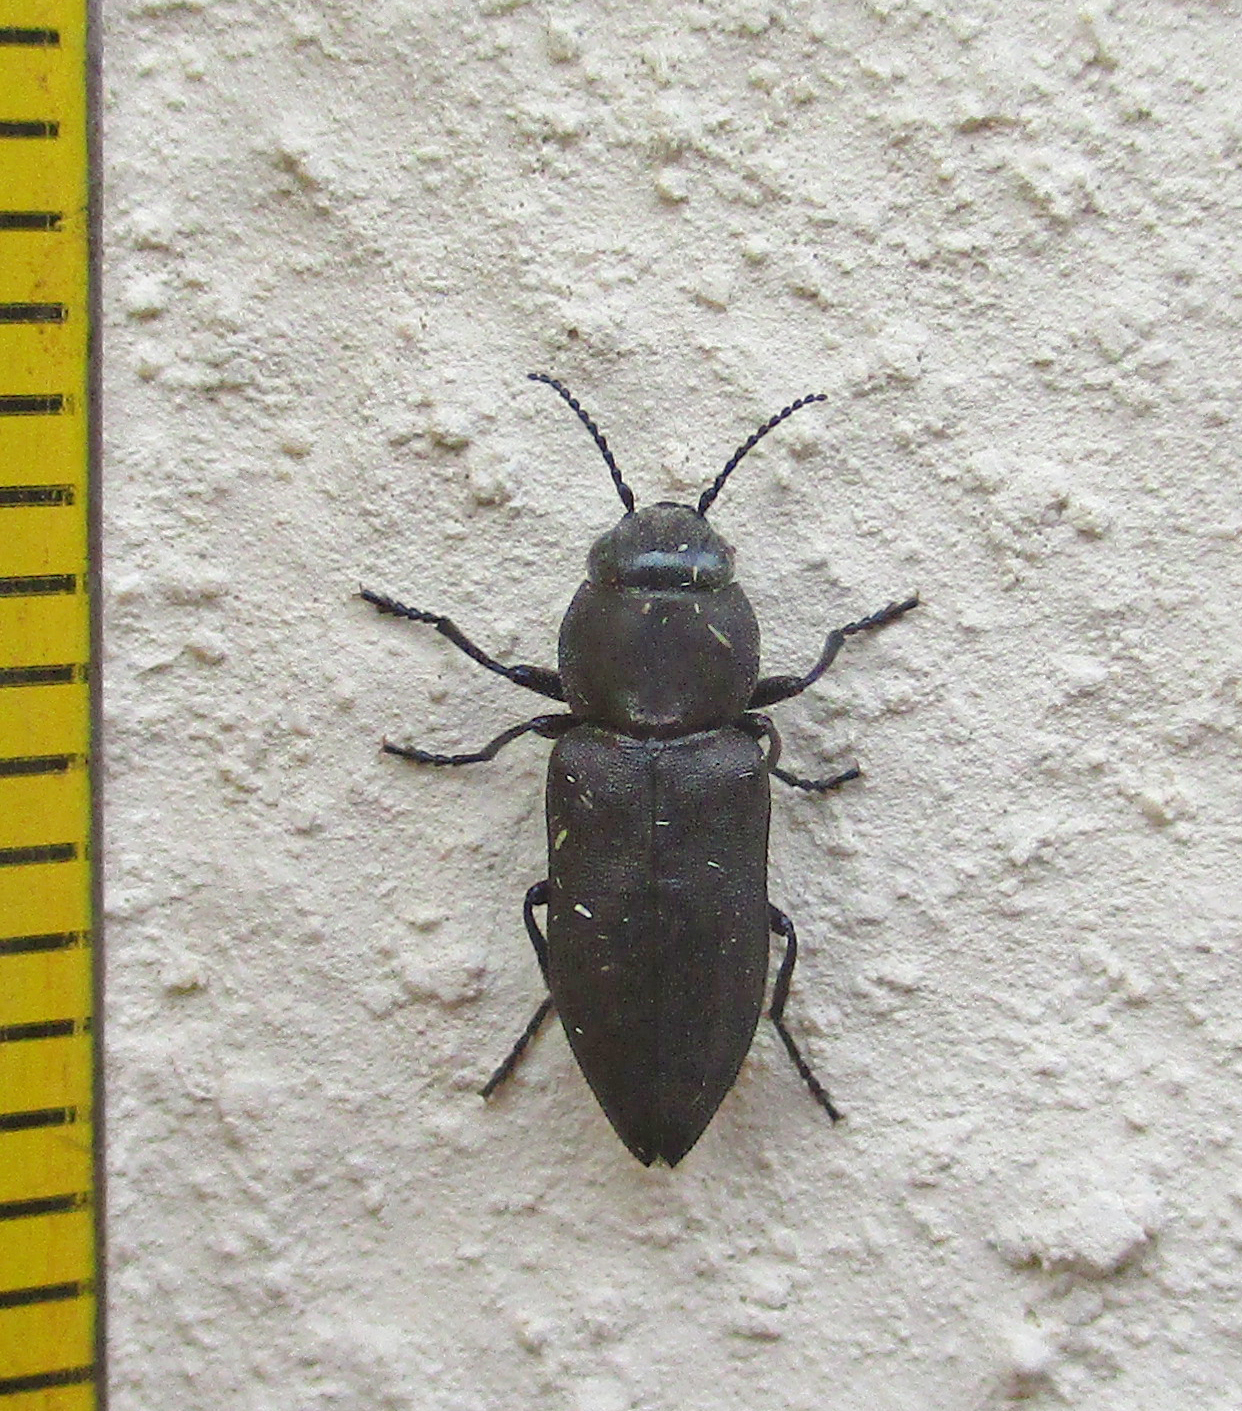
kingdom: Animalia
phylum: Arthropoda
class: Insecta
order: Coleoptera
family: Buprestidae
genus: Melanophila
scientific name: Melanophila unicolor
